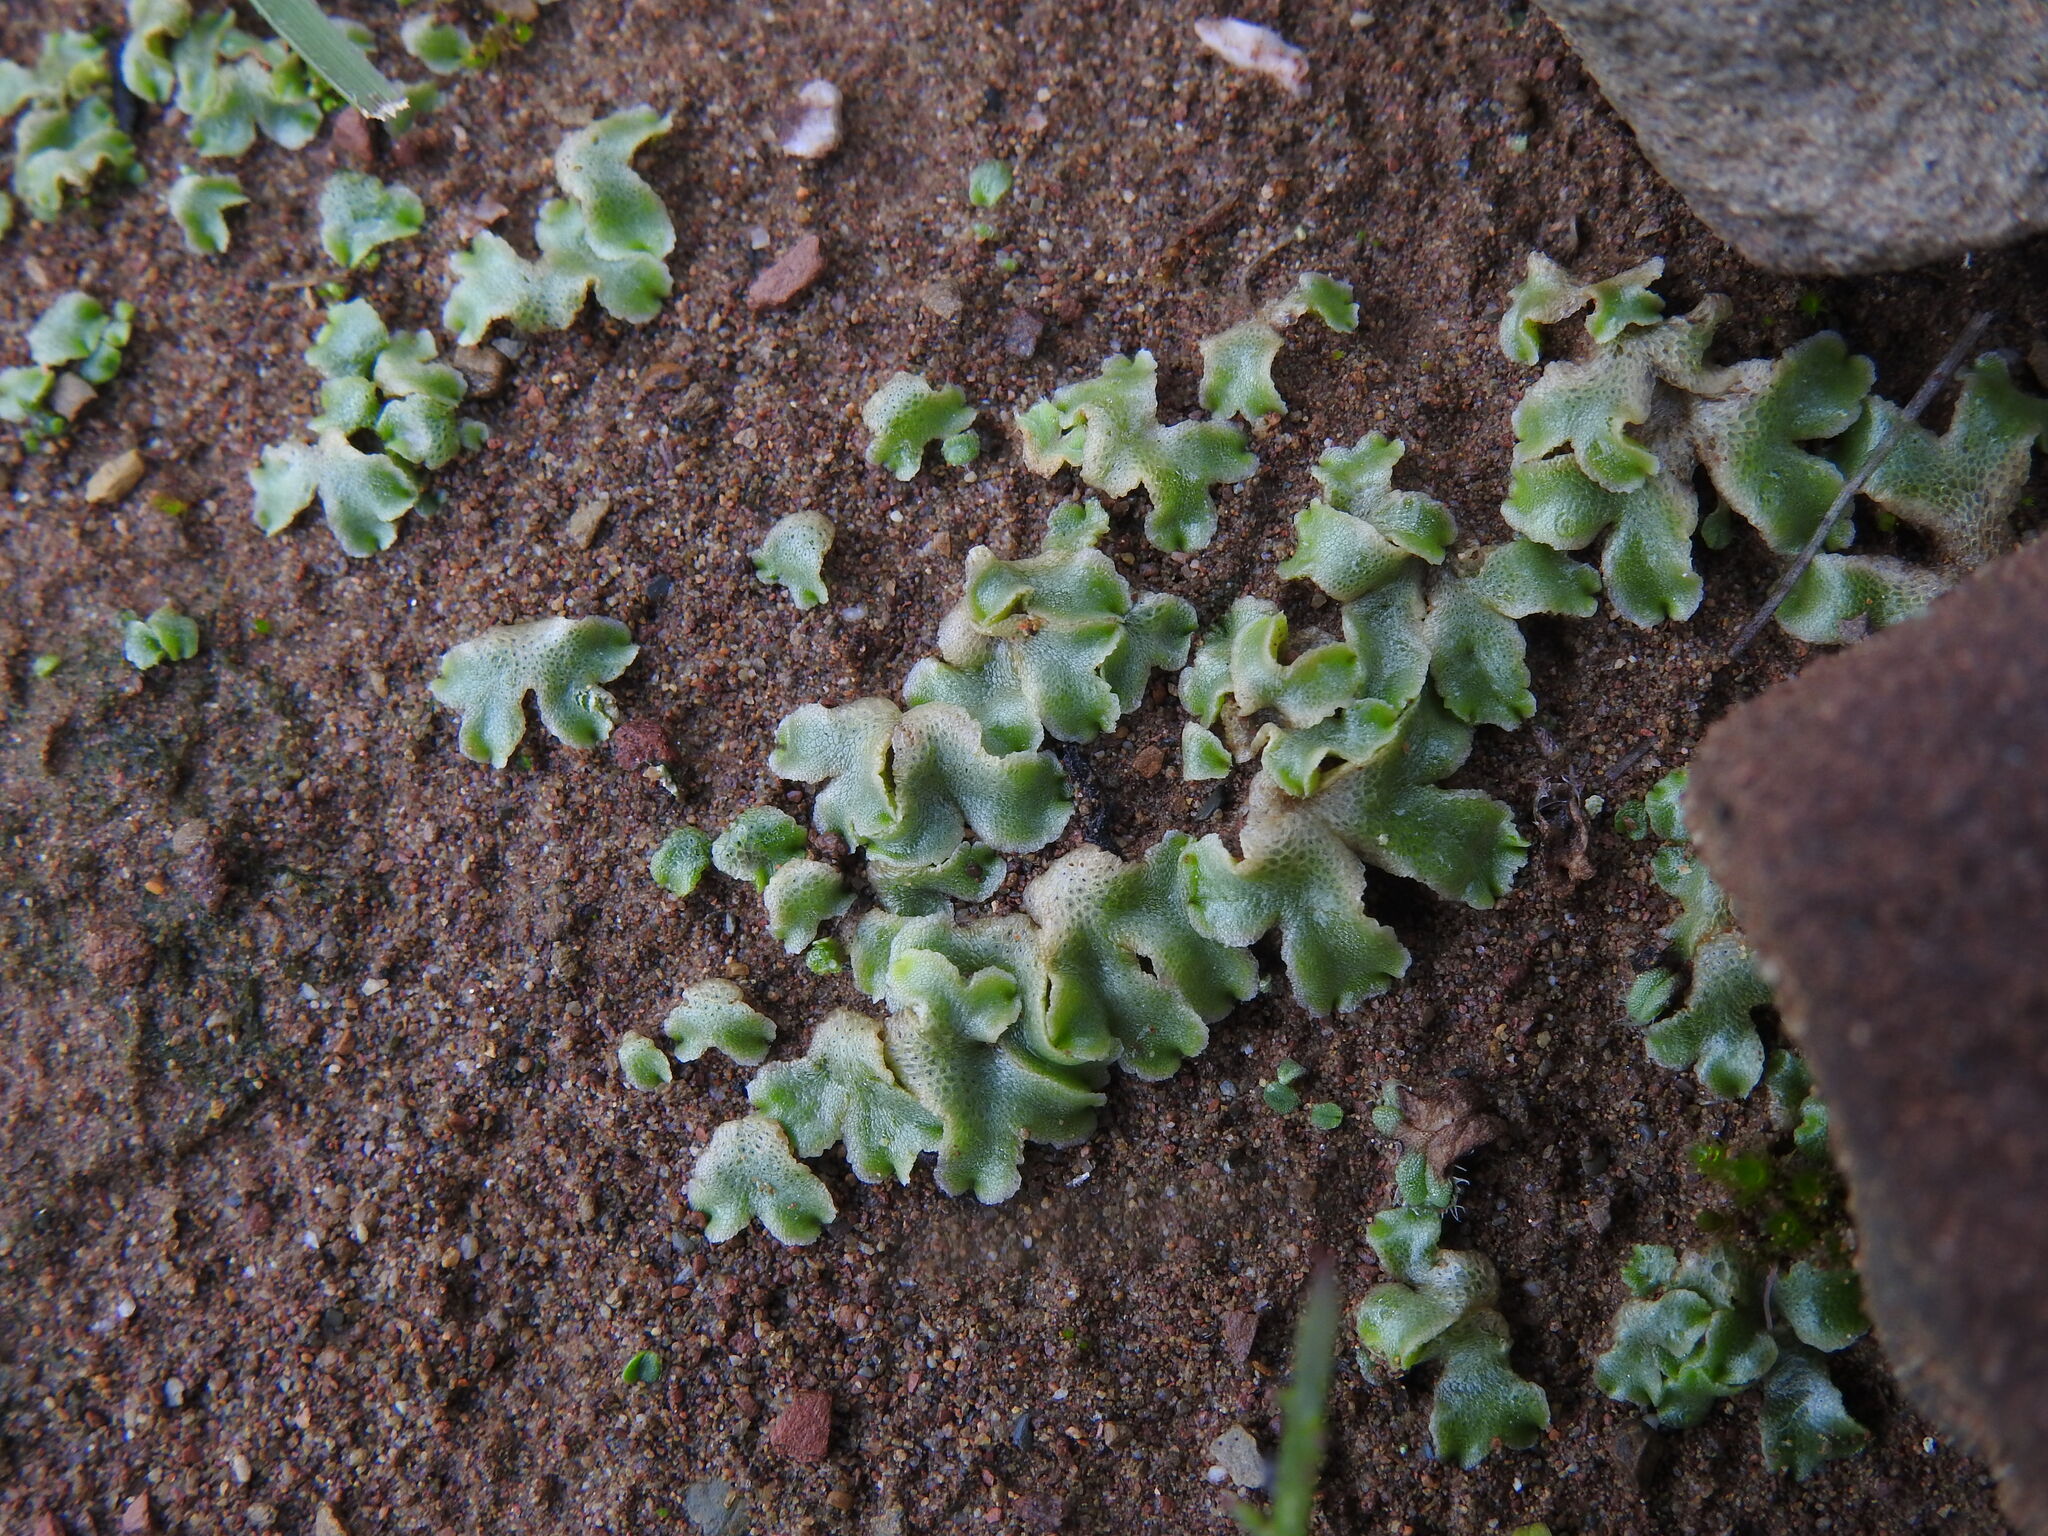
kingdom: Plantae
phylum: Marchantiophyta
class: Marchantiopsida
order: Marchantiales
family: Corsiniaceae
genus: Corsinia
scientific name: Corsinia coriandrina
